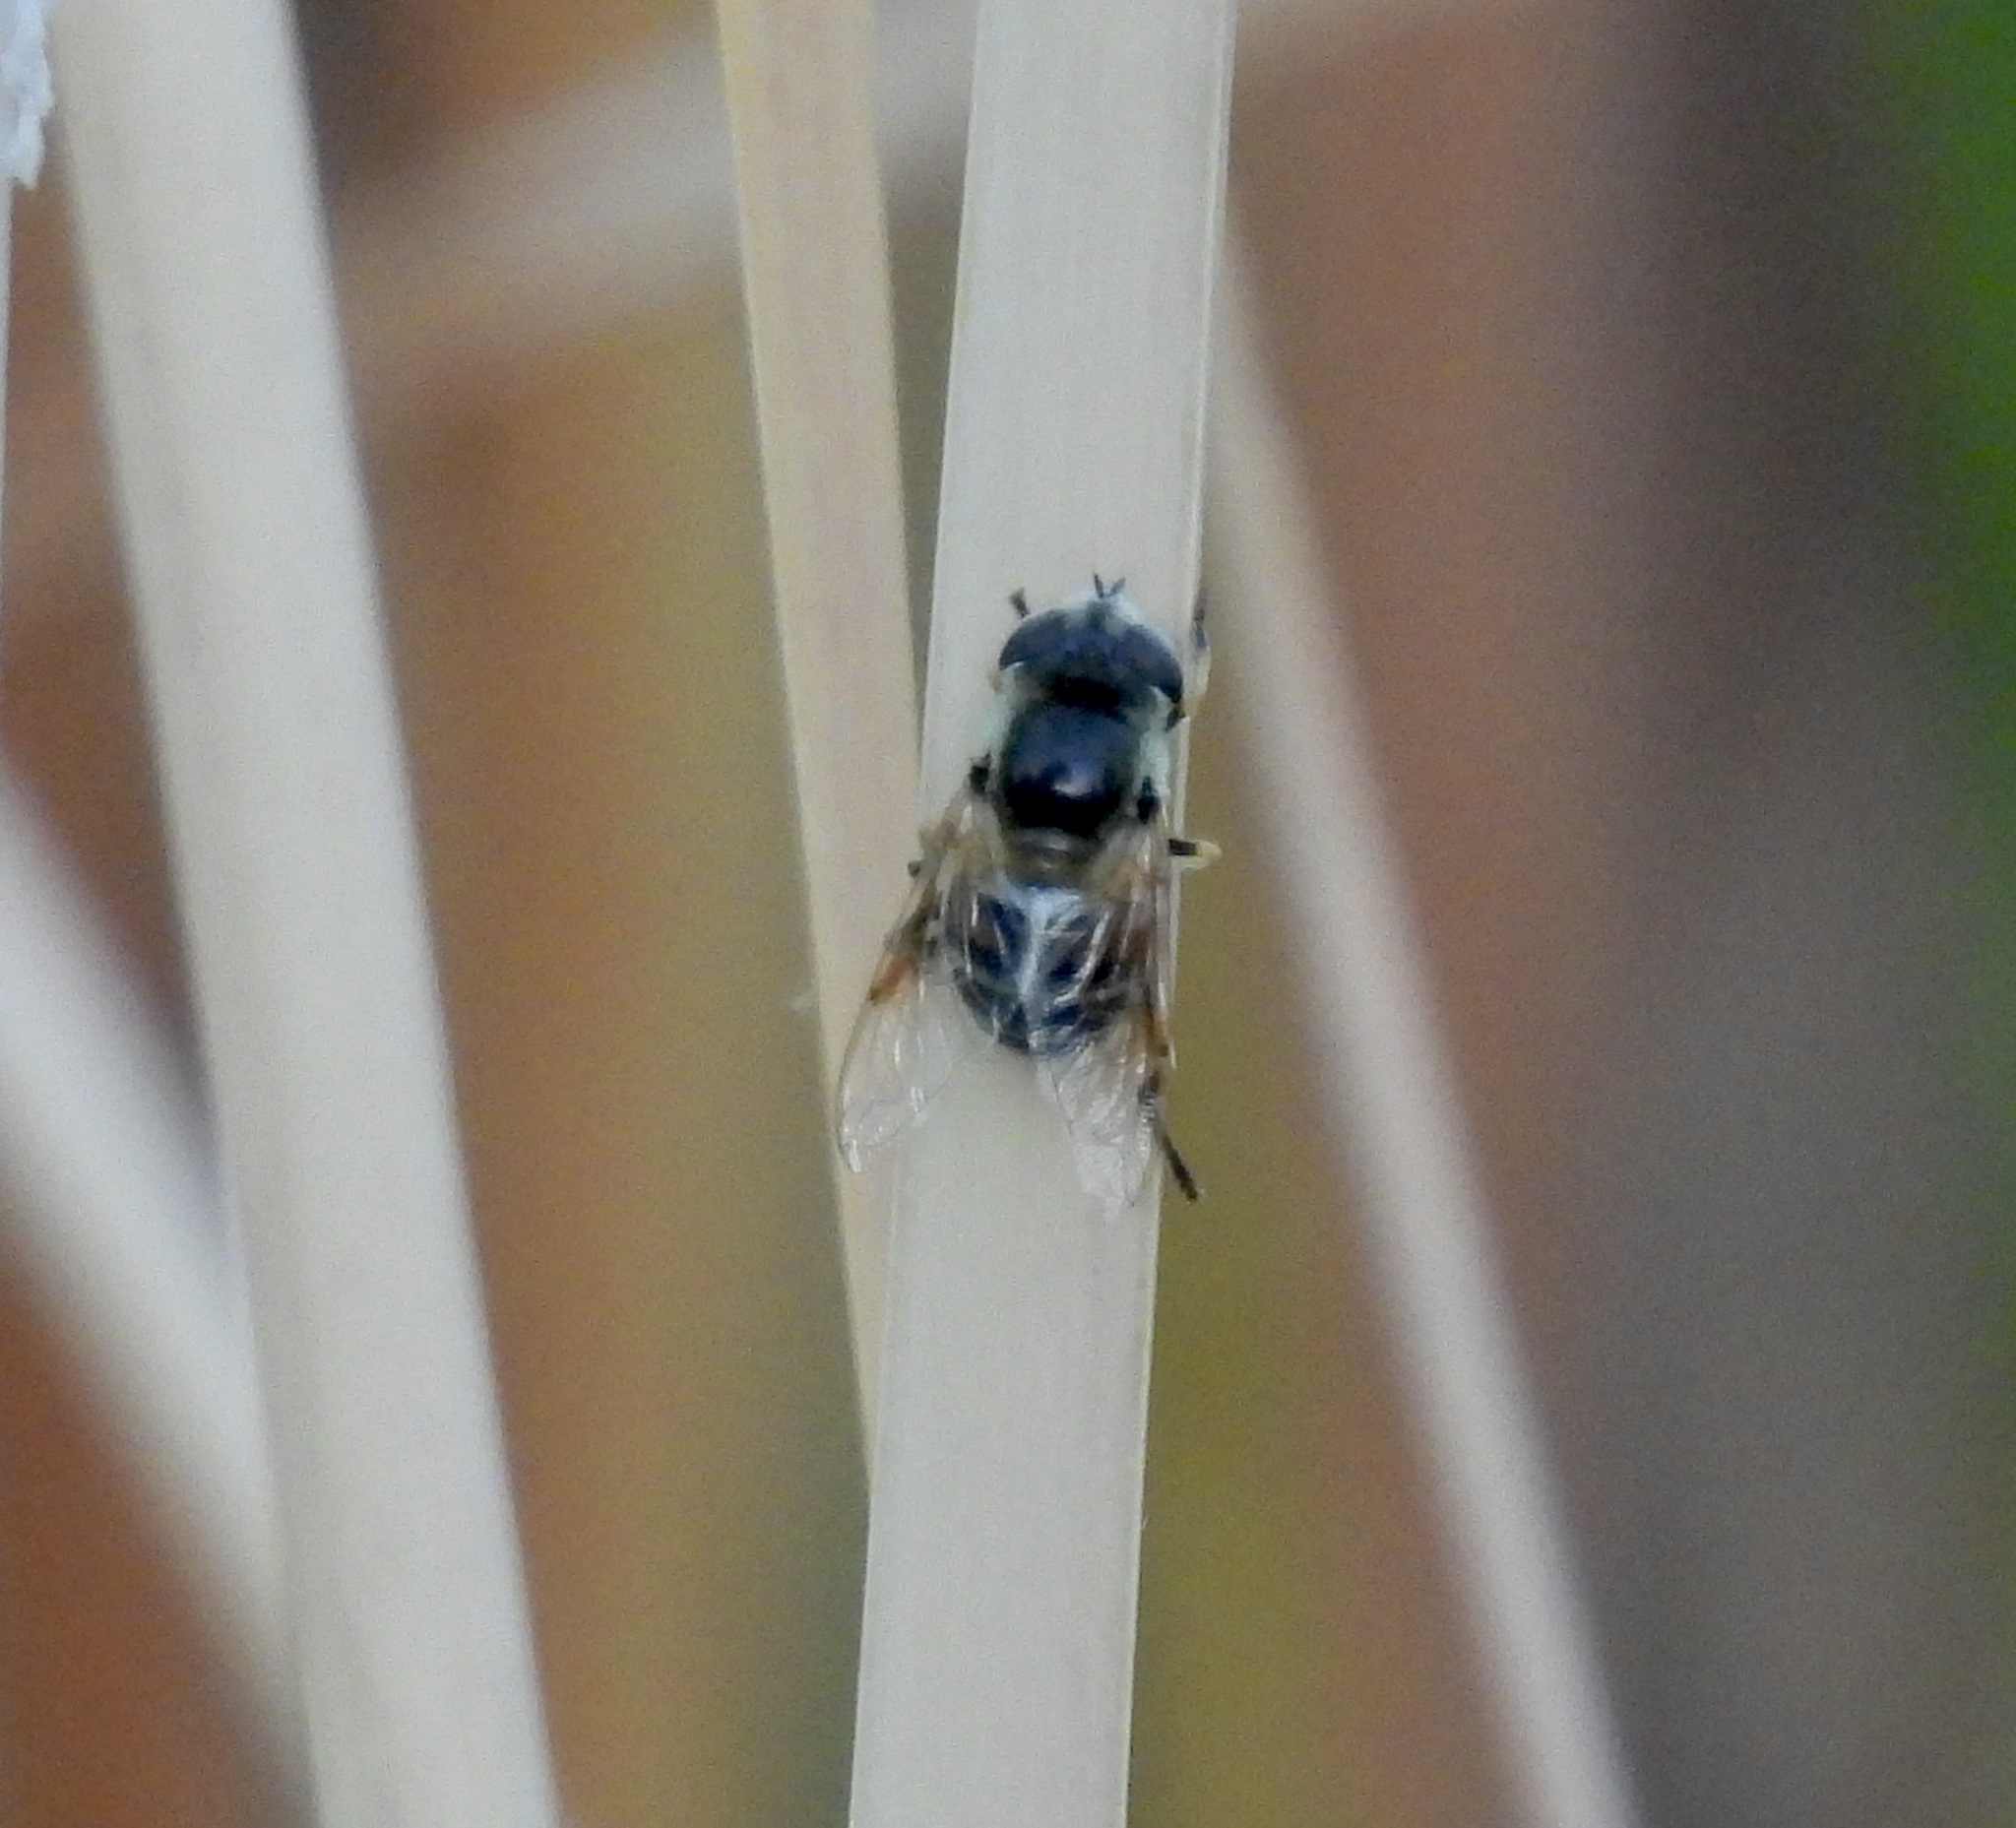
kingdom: Animalia
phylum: Arthropoda
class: Insecta
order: Diptera
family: Syrphidae
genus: Eristalis
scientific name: Eristalis stipator
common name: Yellow-shouldered drone fly
